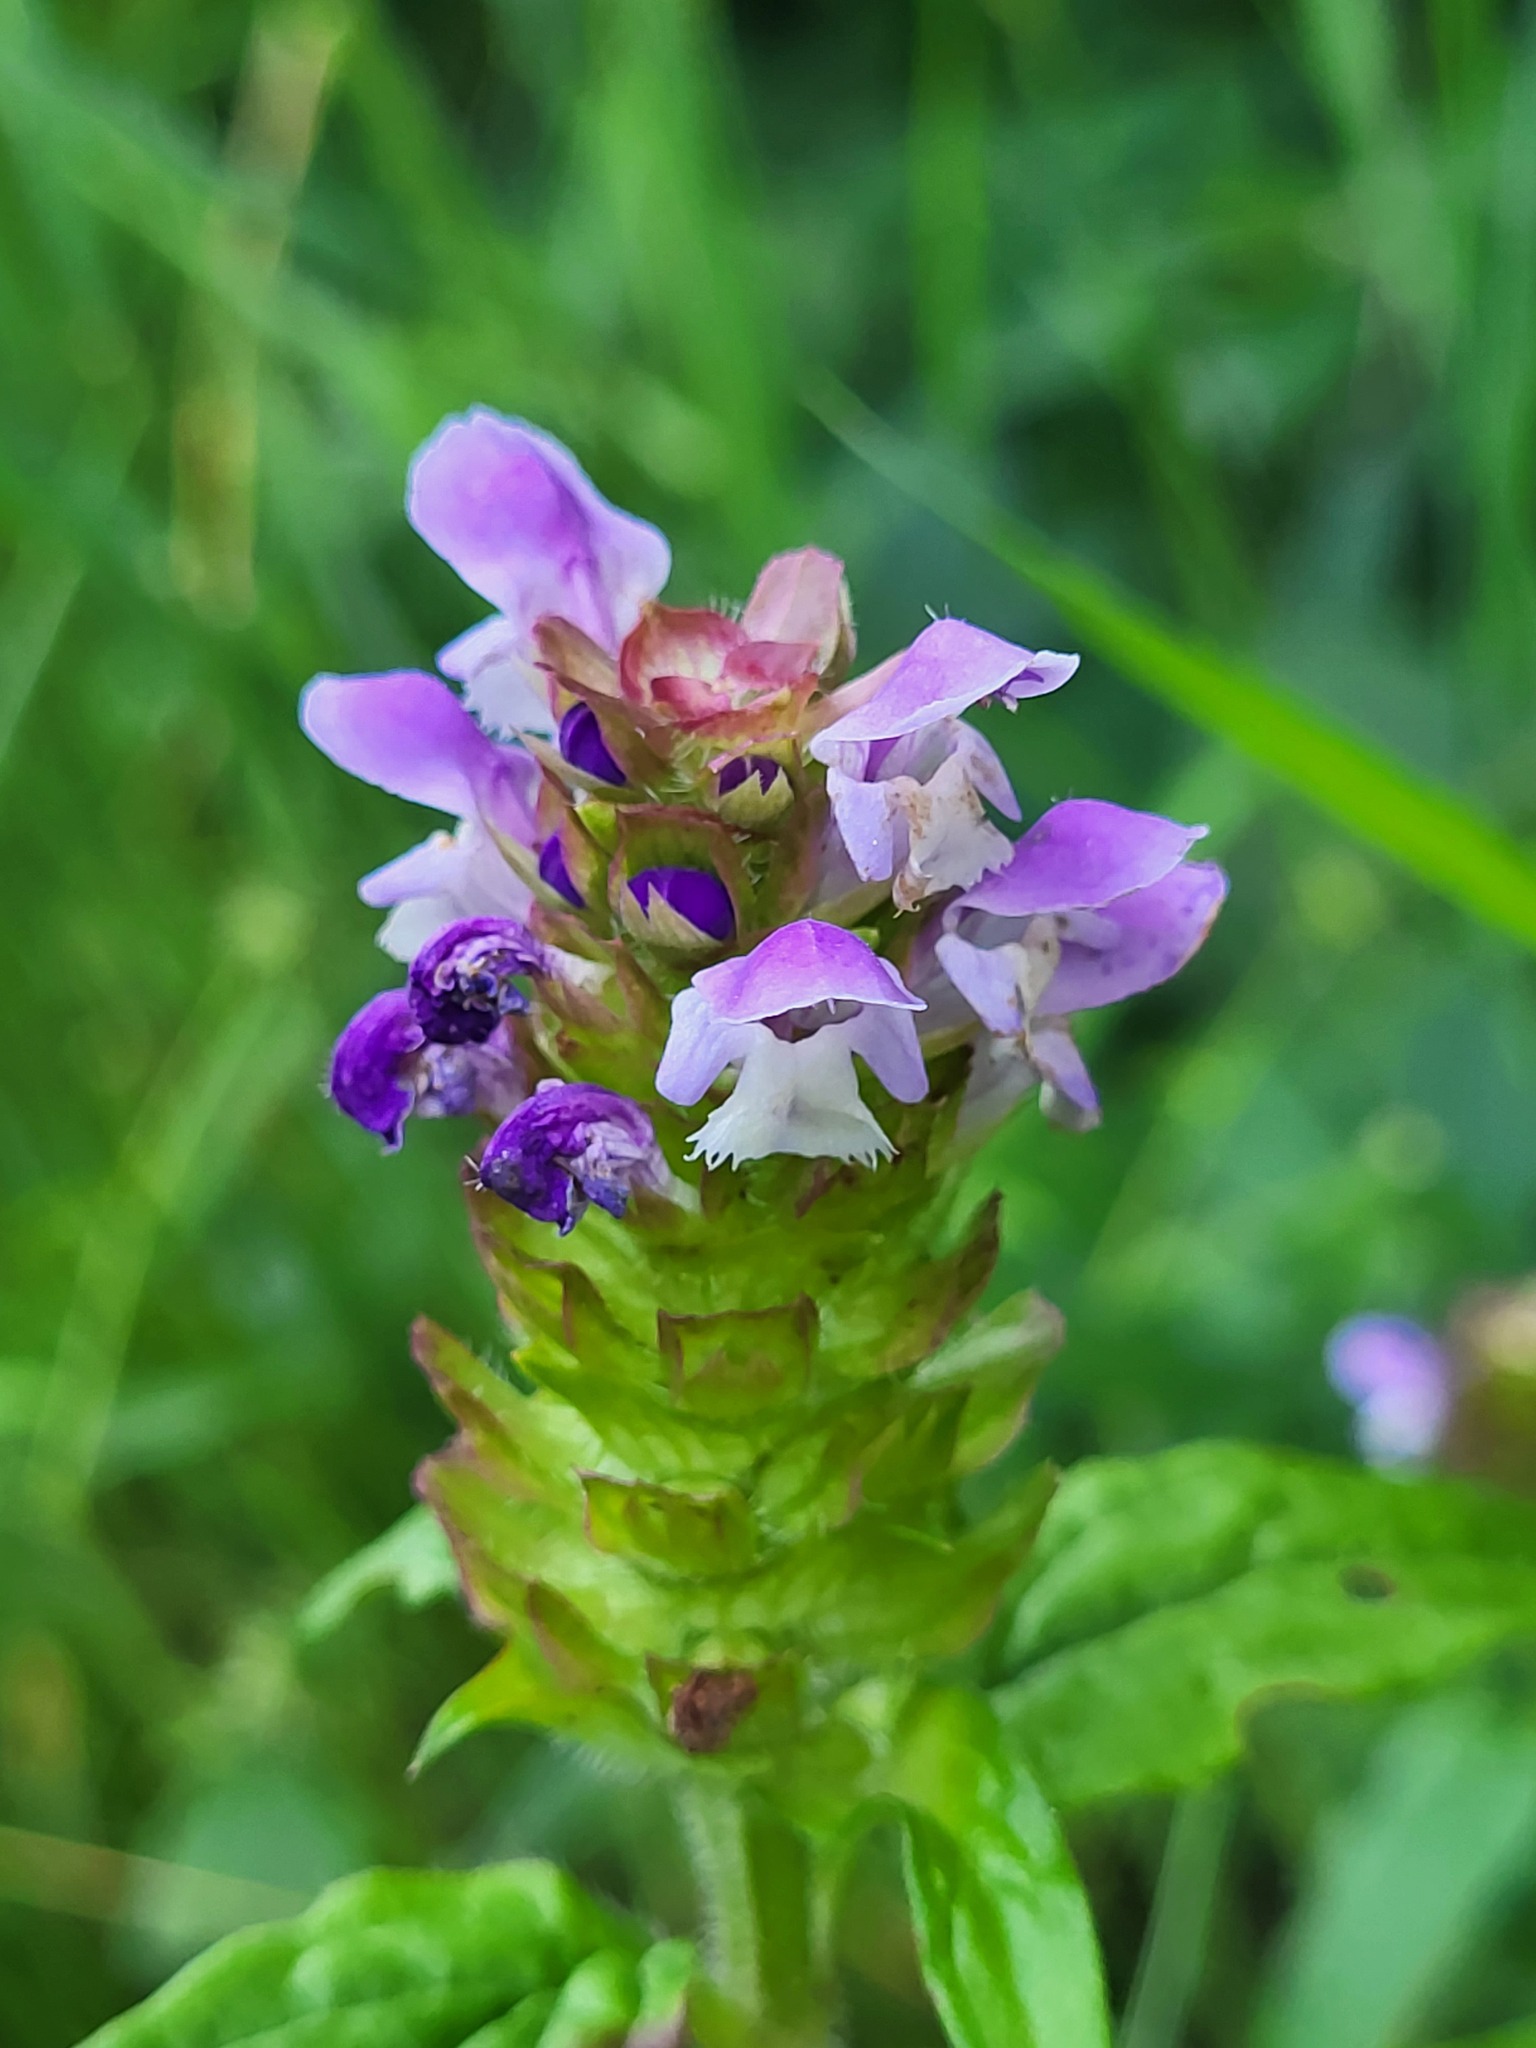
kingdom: Plantae
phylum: Tracheophyta
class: Magnoliopsida
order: Lamiales
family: Lamiaceae
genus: Prunella
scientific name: Prunella vulgaris
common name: Heal-all
